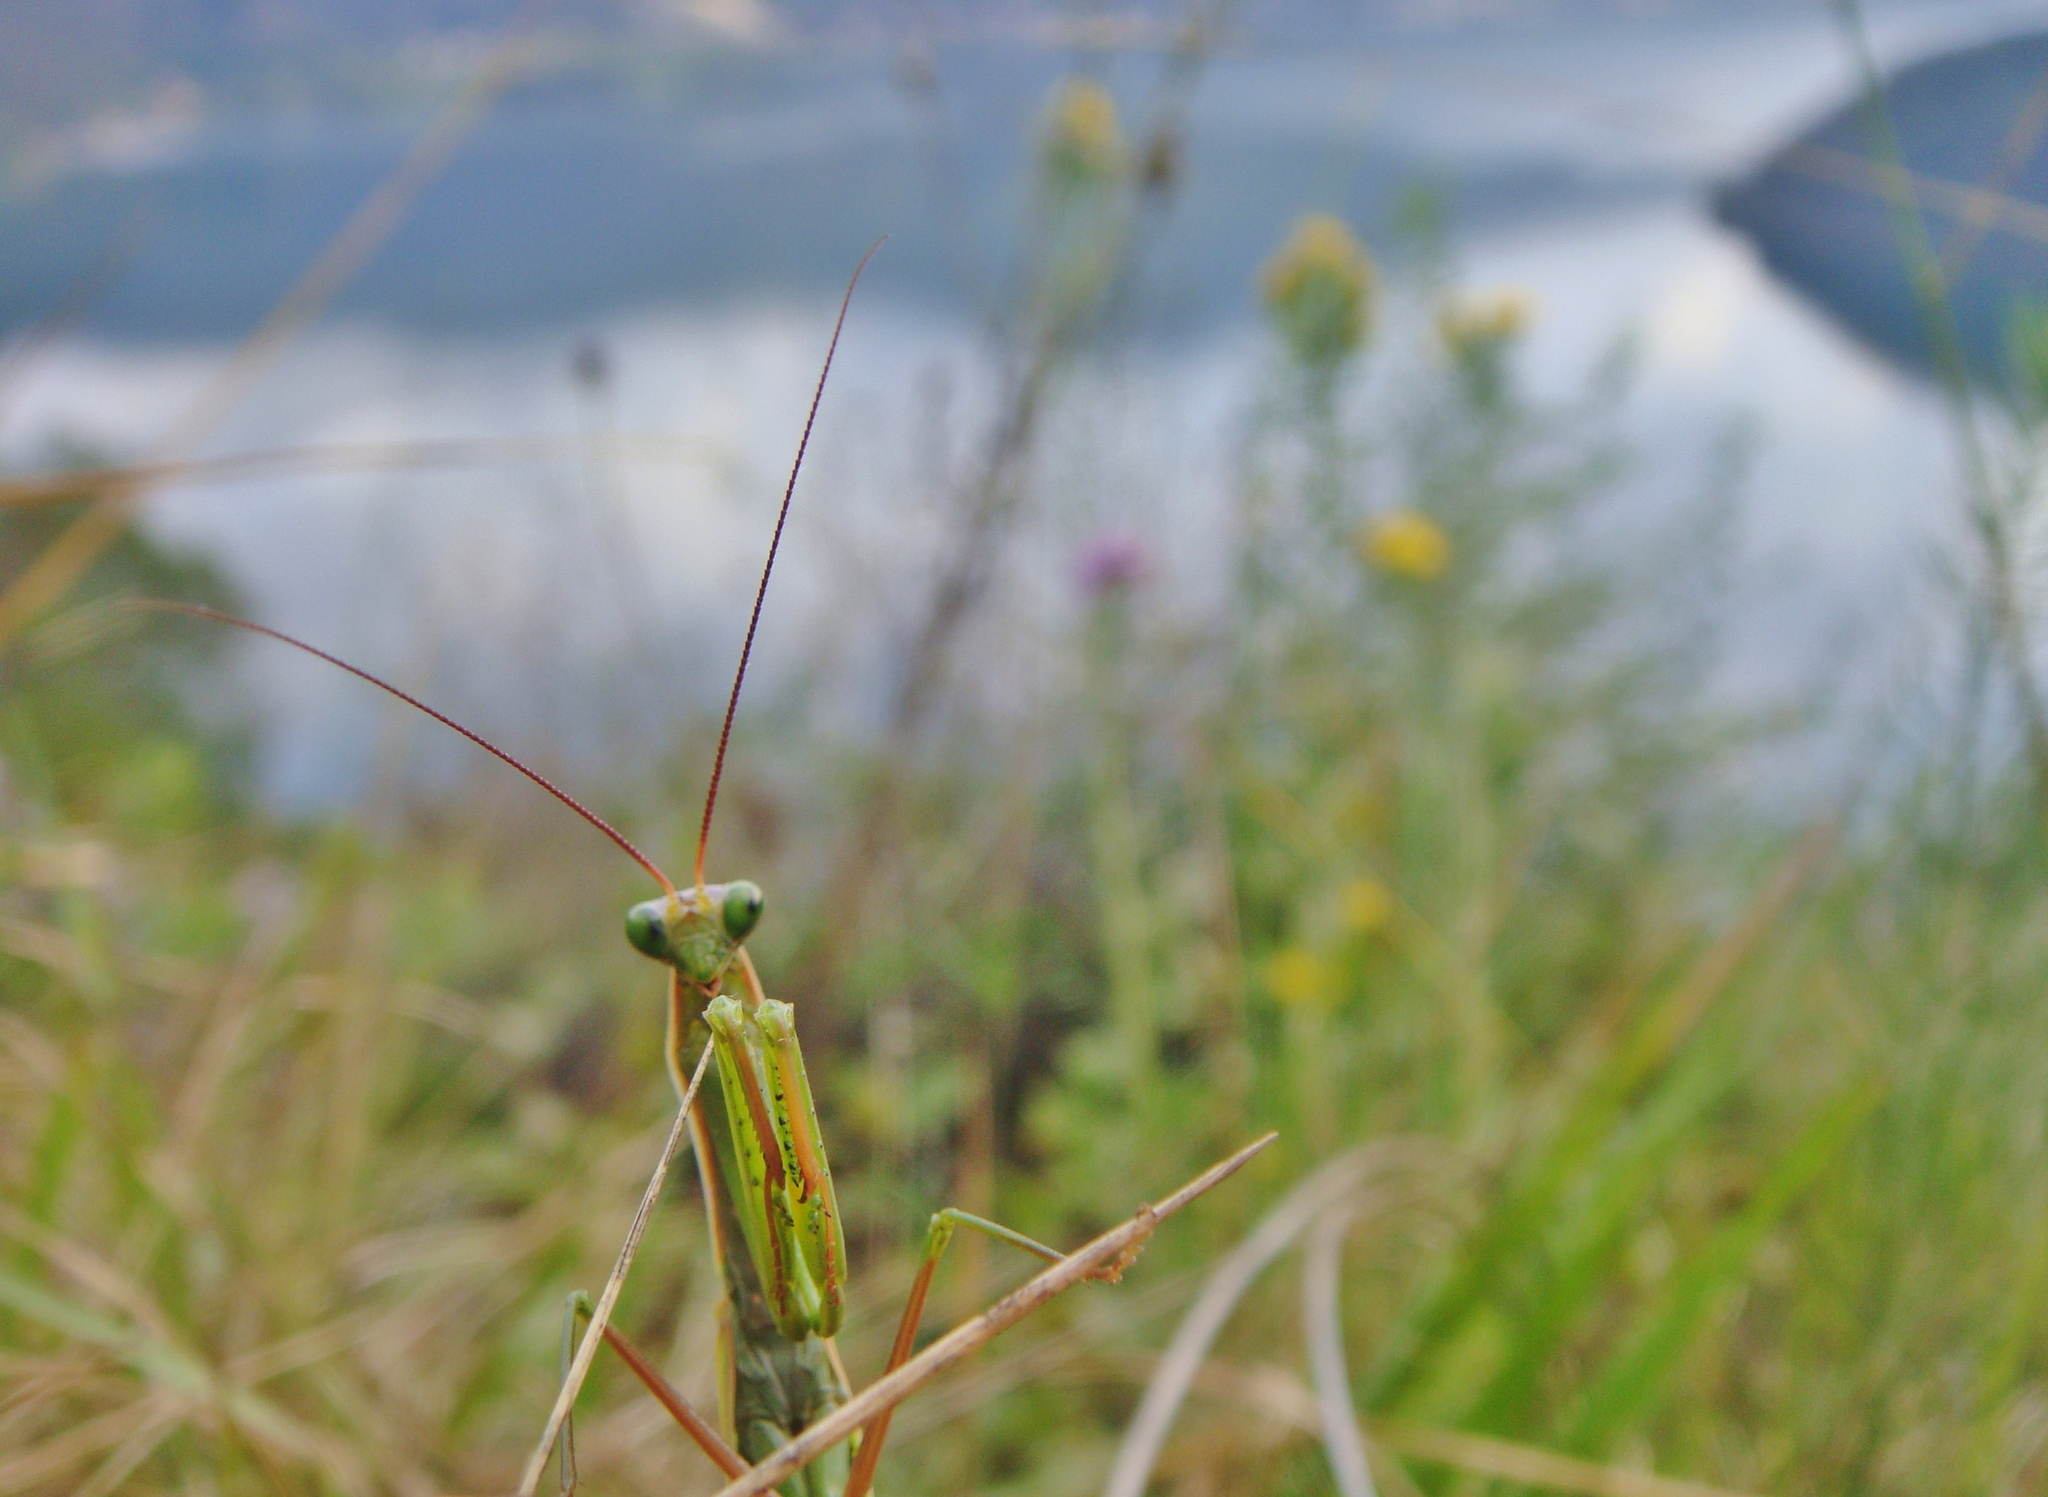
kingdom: Animalia
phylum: Arthropoda
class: Insecta
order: Mantodea
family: Mantidae
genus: Mantis
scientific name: Mantis religiosa
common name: Praying mantis
